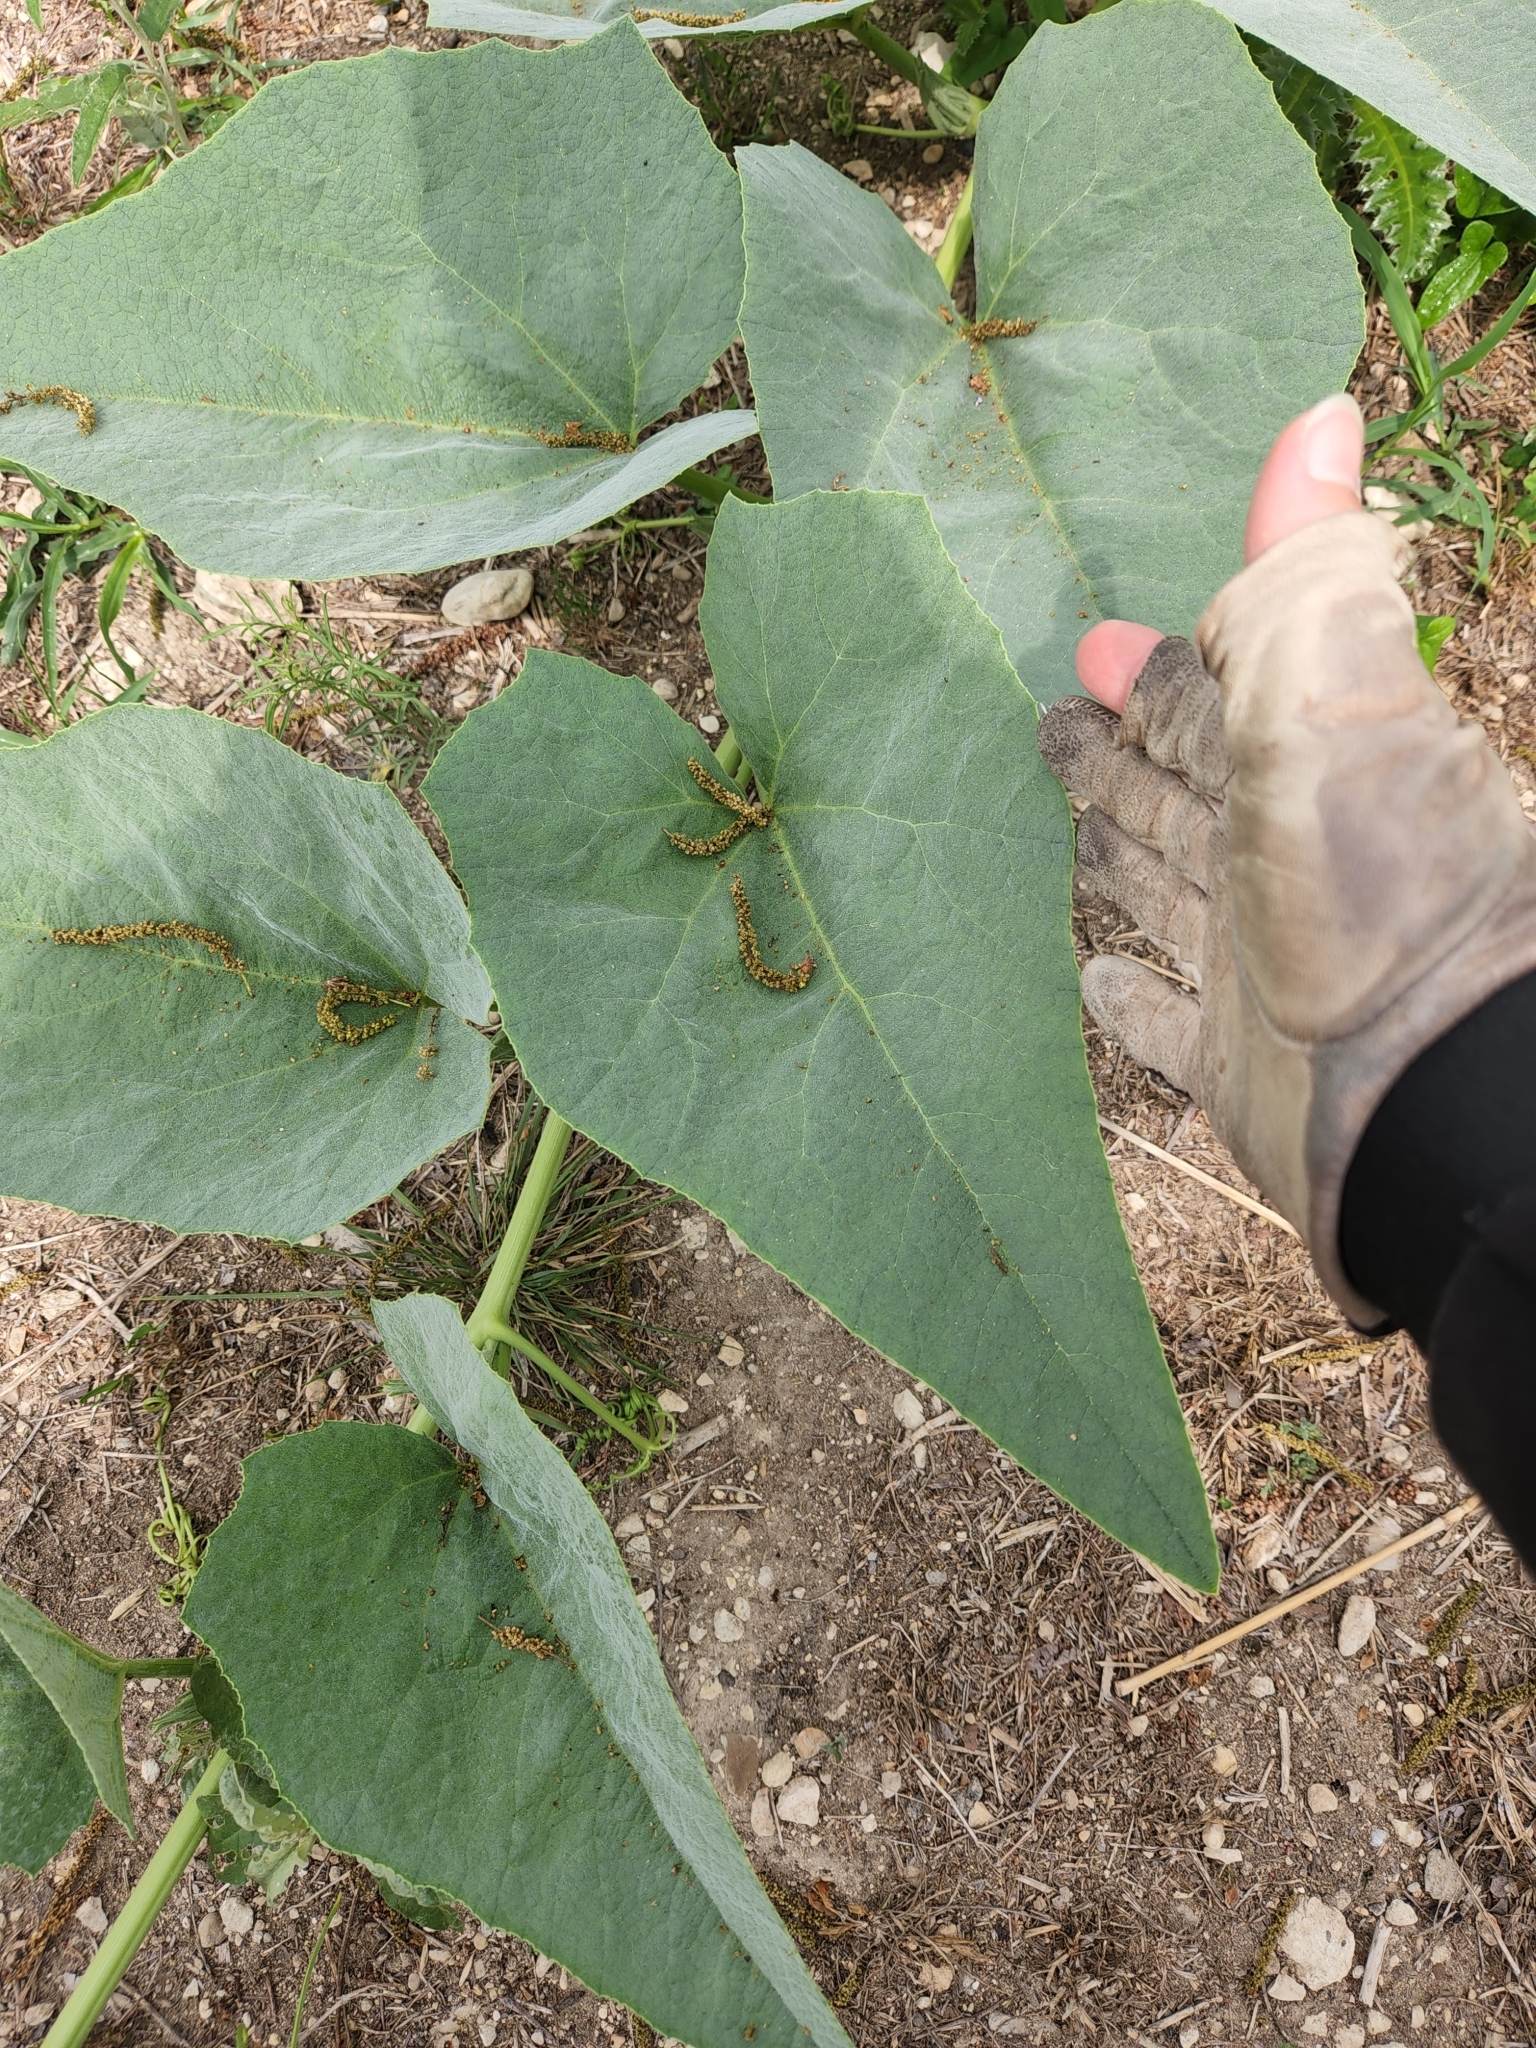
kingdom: Plantae
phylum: Tracheophyta
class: Magnoliopsida
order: Cucurbitales
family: Cucurbitaceae
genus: Cucurbita
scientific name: Cucurbita foetidissima
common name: Buffalo gourd
